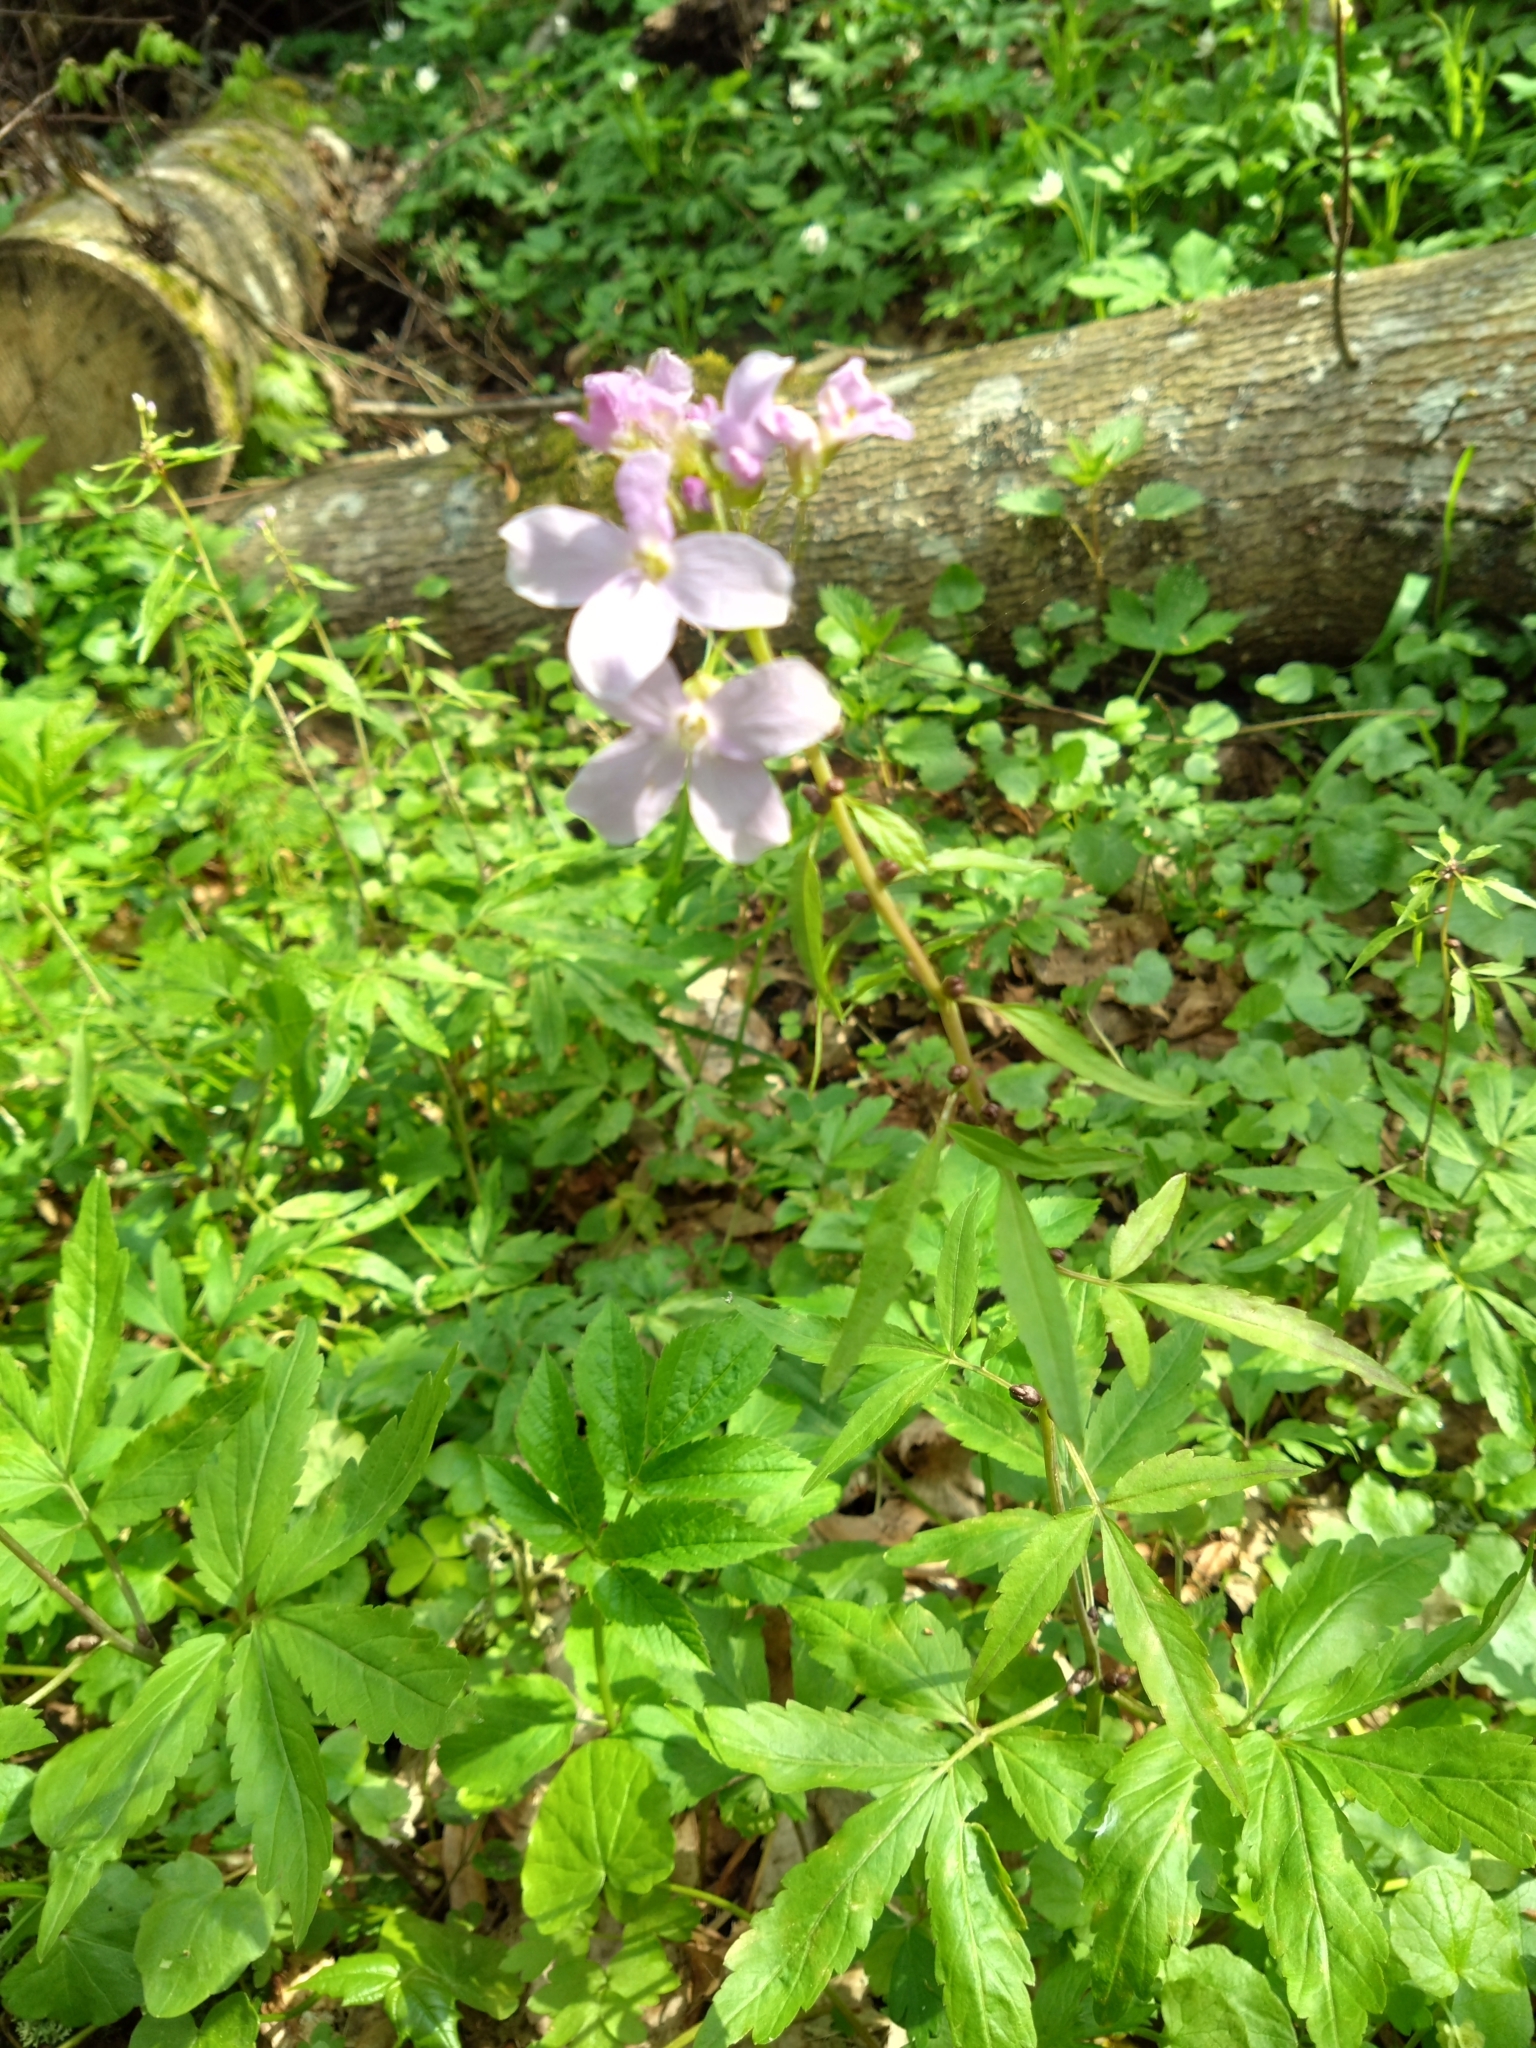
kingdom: Plantae
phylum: Tracheophyta
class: Magnoliopsida
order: Brassicales
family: Brassicaceae
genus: Cardamine
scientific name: Cardamine bulbifera
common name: Coralroot bittercress
